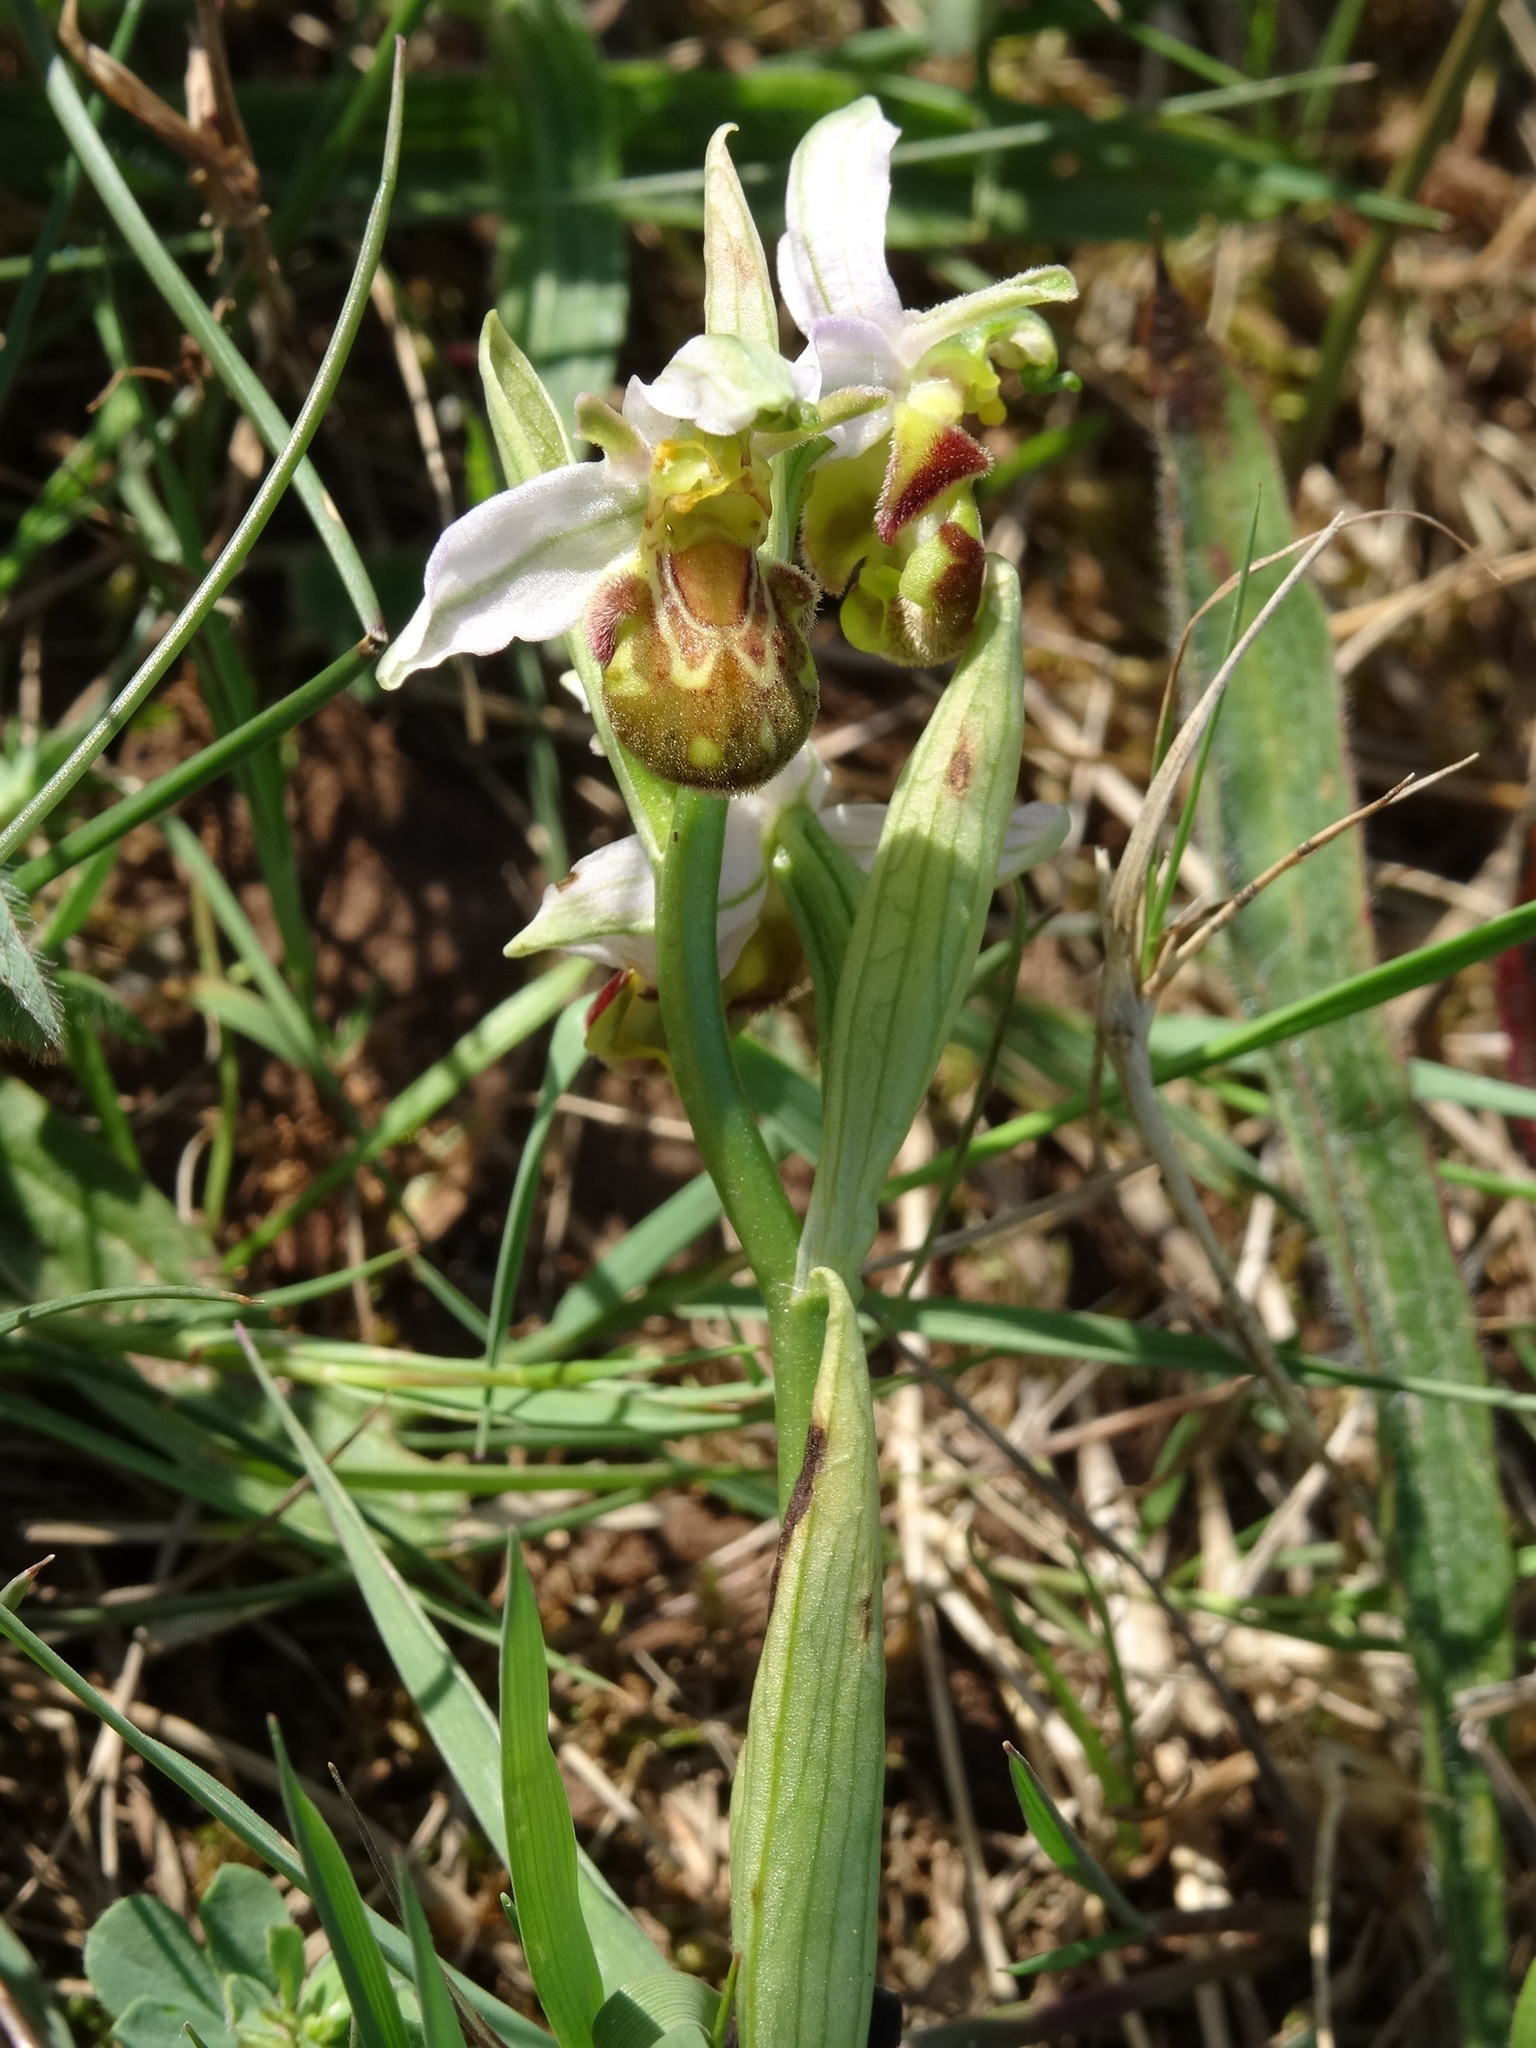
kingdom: Plantae
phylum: Tracheophyta
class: Liliopsida
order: Asparagales
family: Orchidaceae
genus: Ophrys
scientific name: Ophrys apifera
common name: Bee orchid
